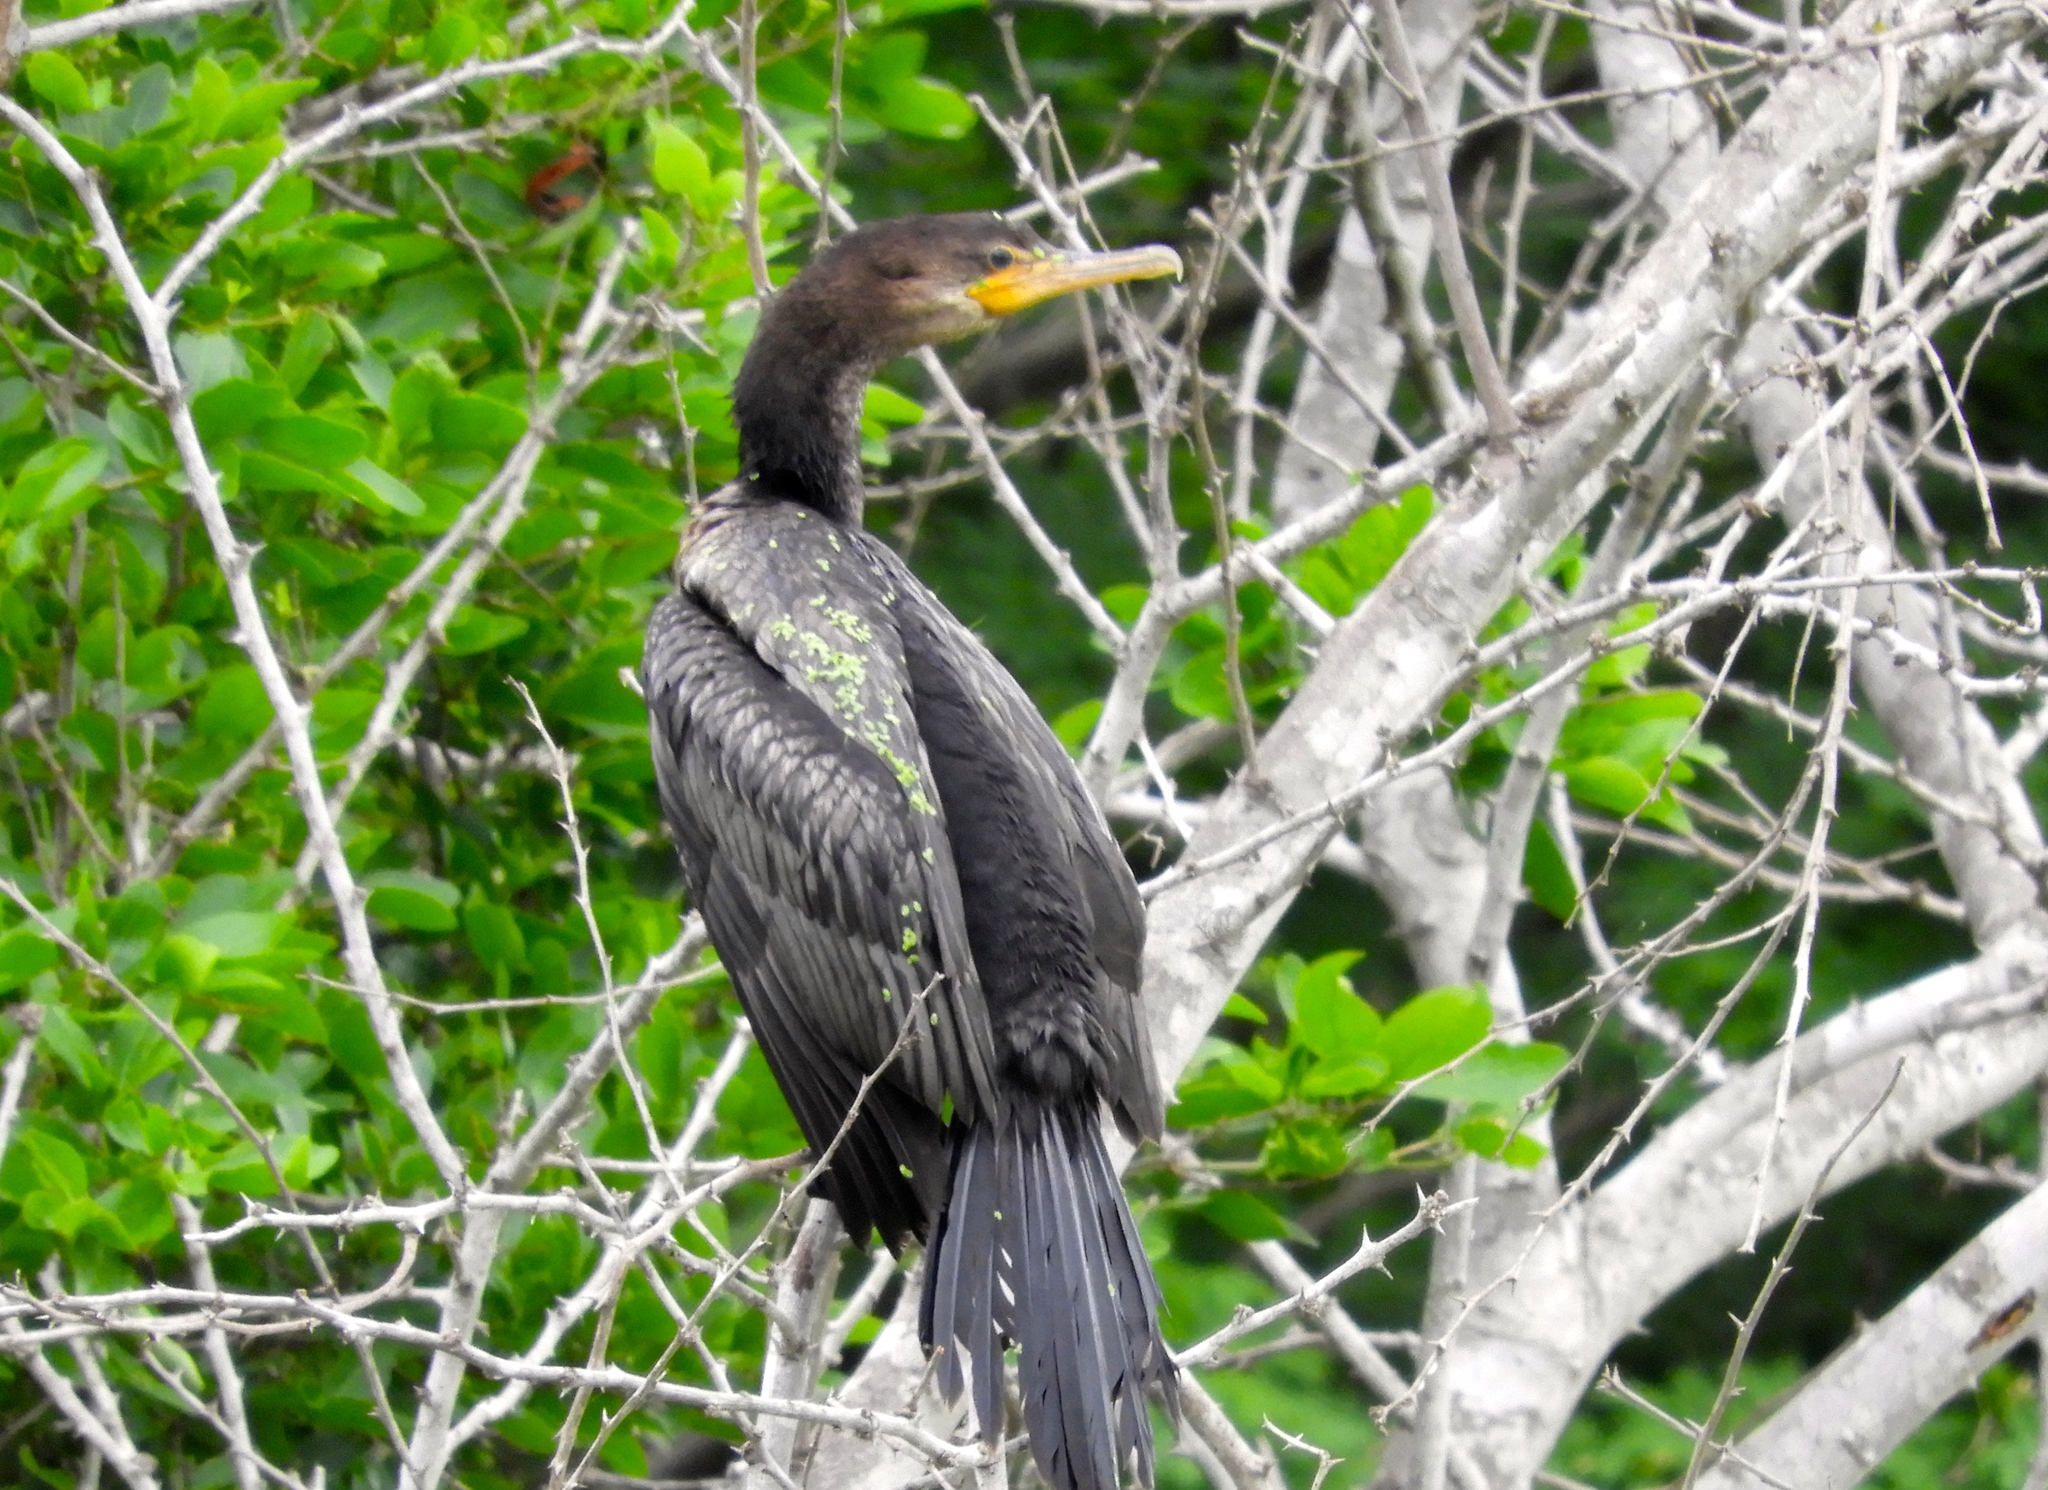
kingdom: Animalia
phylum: Chordata
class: Aves
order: Suliformes
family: Phalacrocoracidae
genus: Phalacrocorax
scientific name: Phalacrocorax brasilianus
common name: Neotropic cormorant
